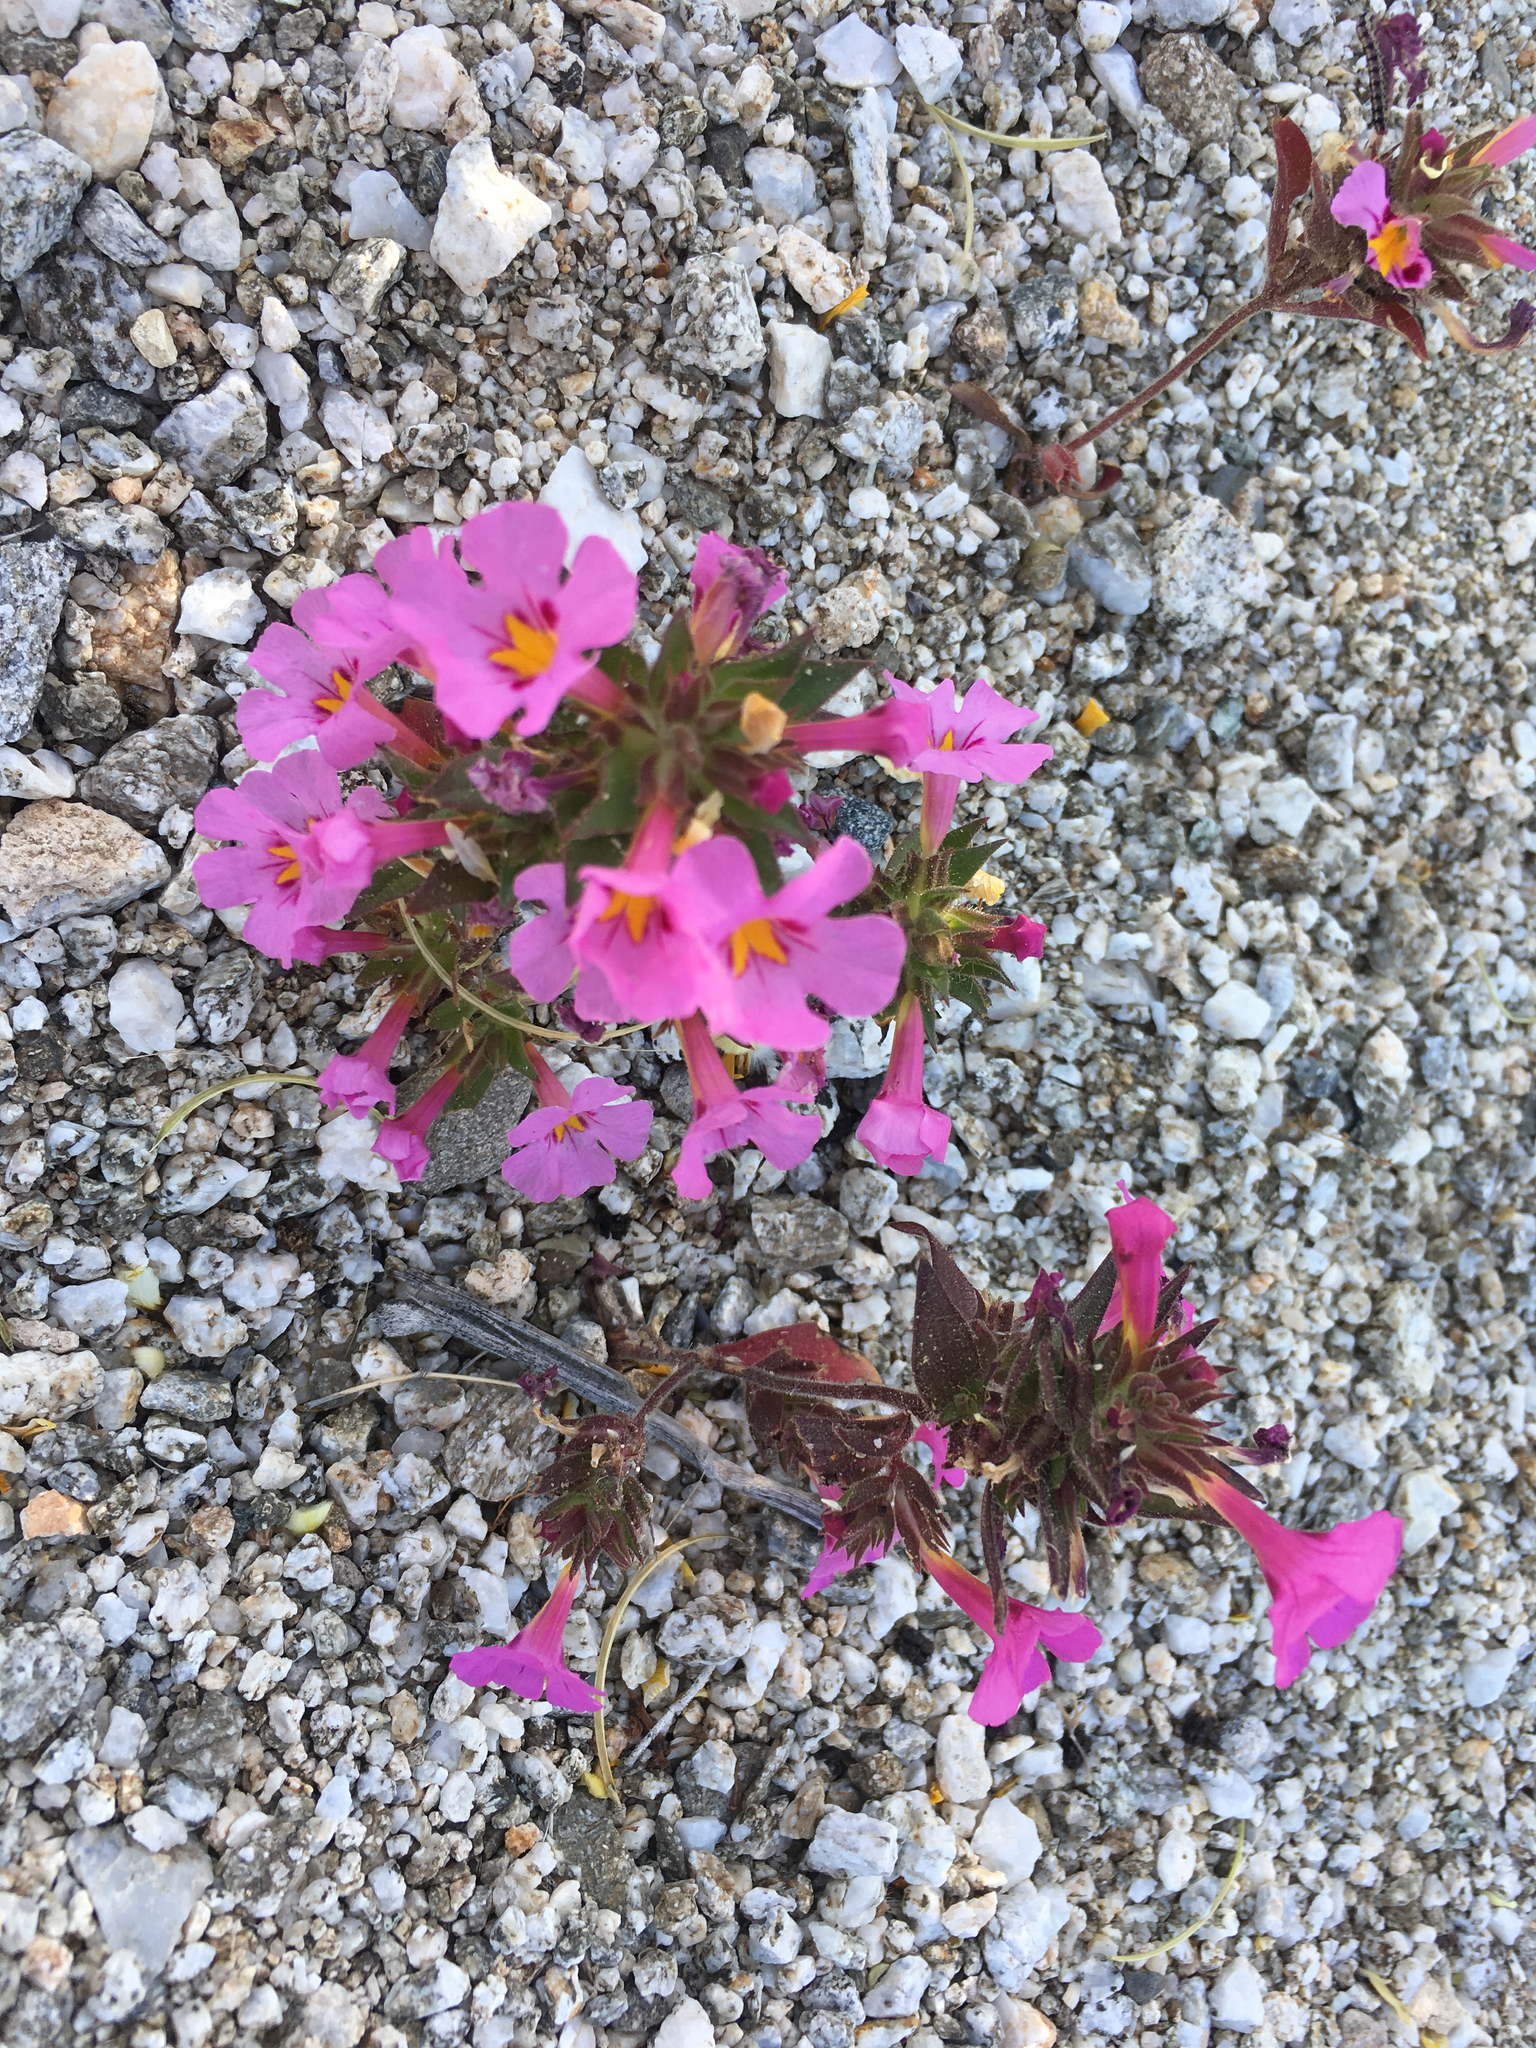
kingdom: Plantae
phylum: Tracheophyta
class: Magnoliopsida
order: Lamiales
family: Phrymaceae
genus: Diplacus
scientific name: Diplacus bigelovii
